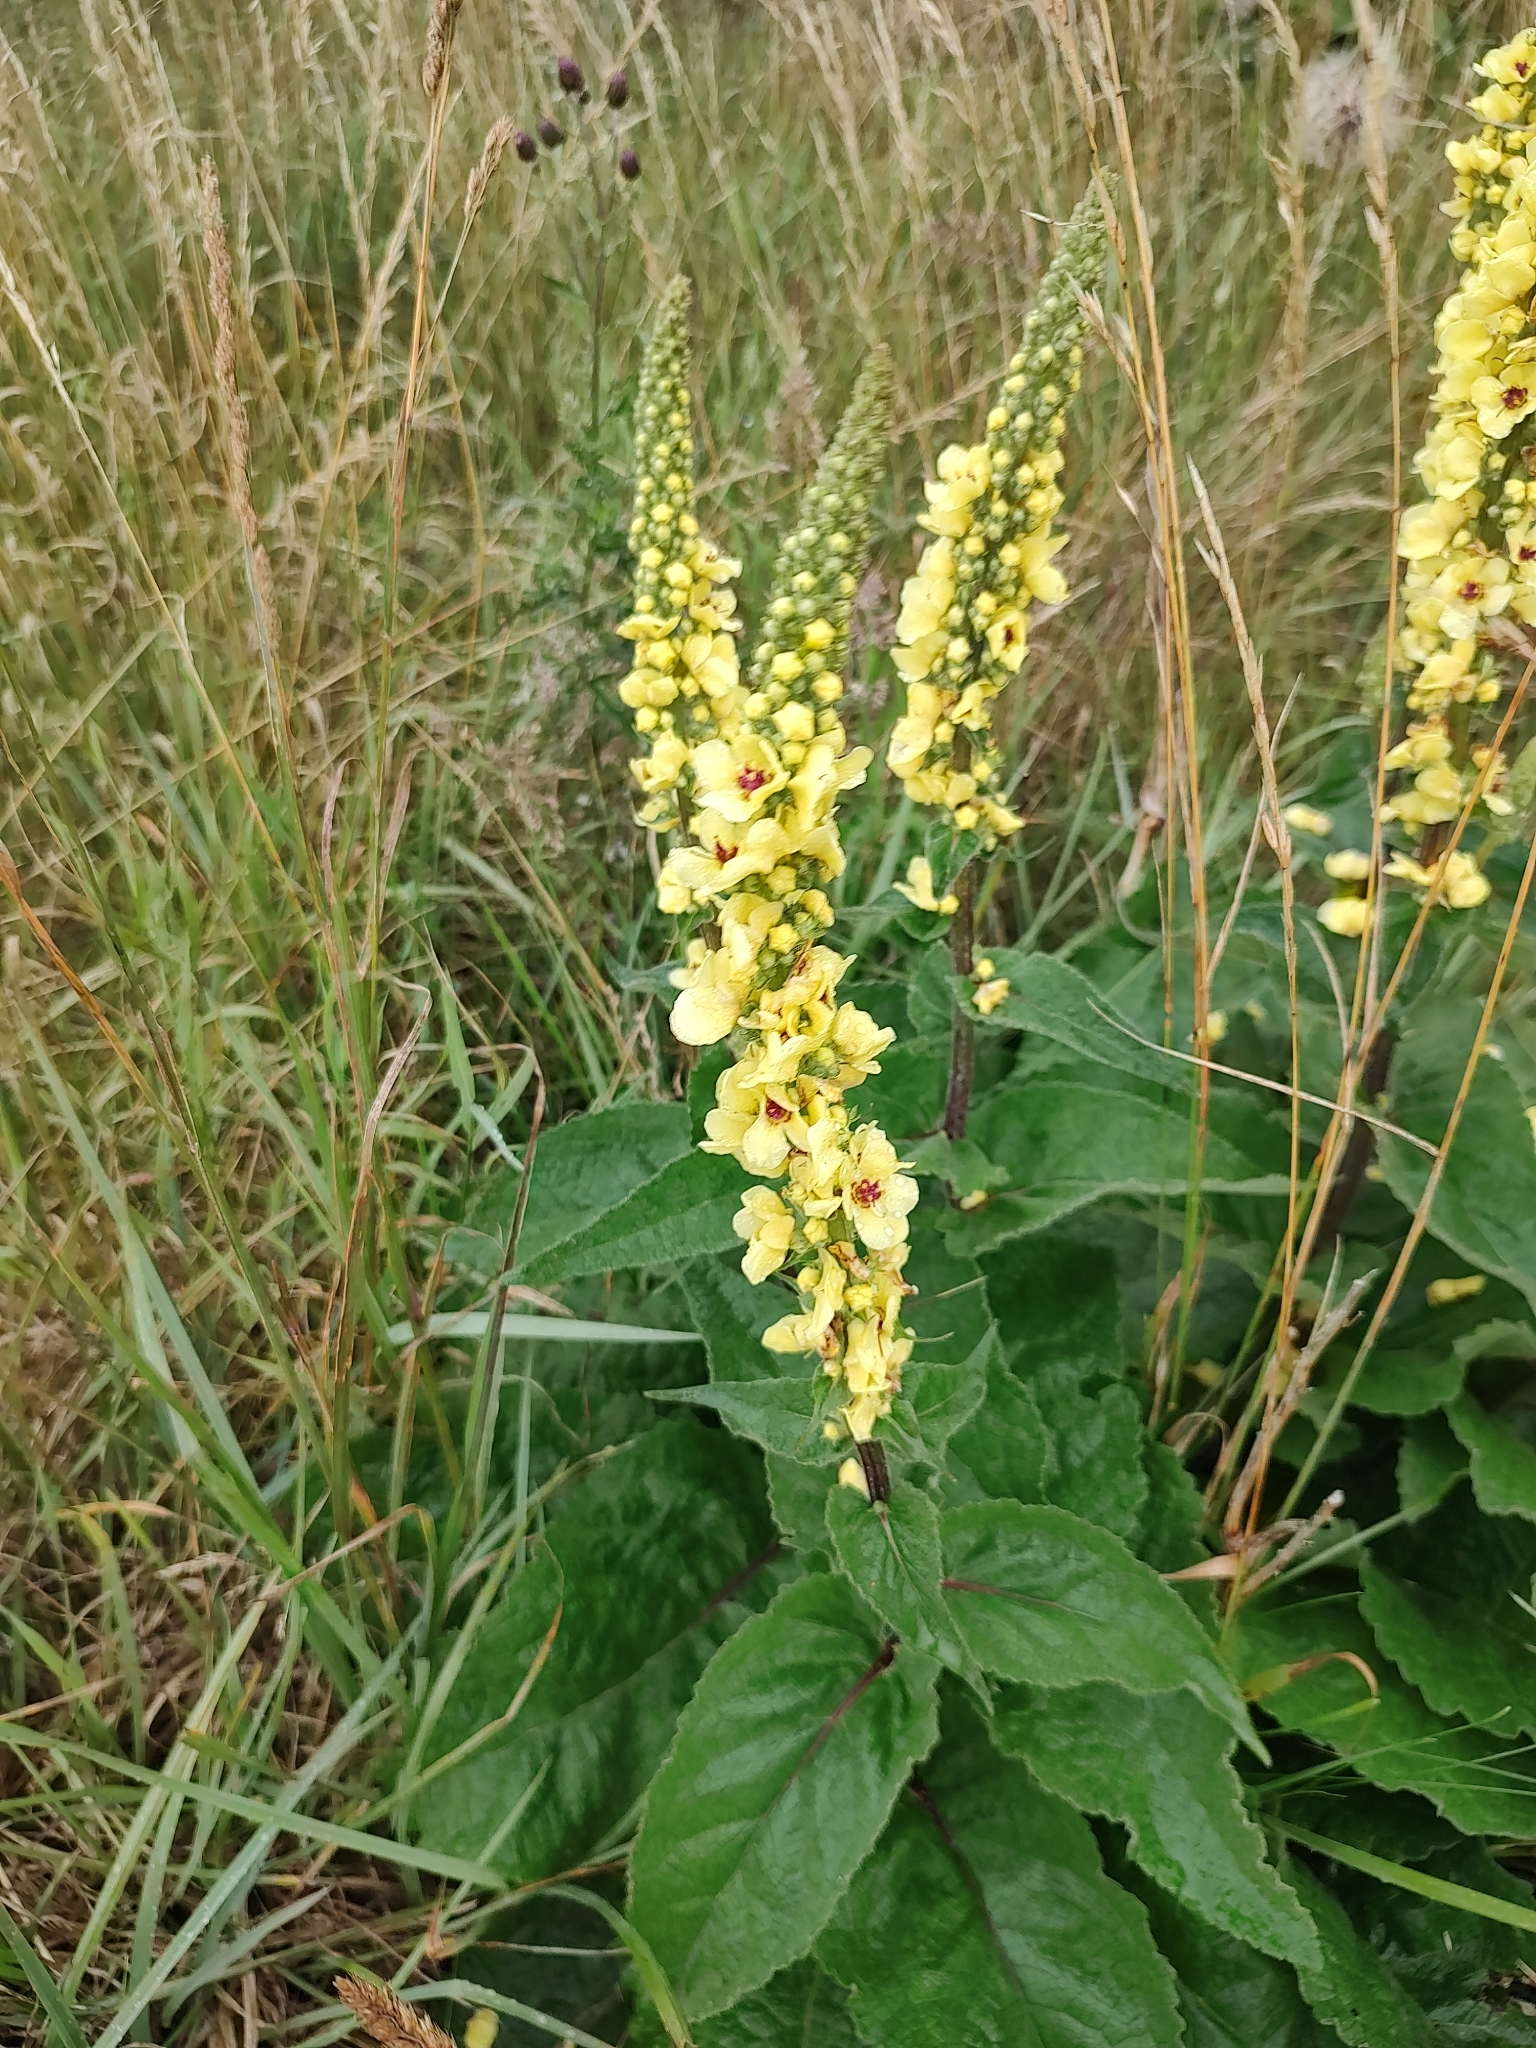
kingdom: Plantae
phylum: Tracheophyta
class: Magnoliopsida
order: Lamiales
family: Scrophulariaceae
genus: Verbascum
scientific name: Verbascum nigrum
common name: Dark mullein
